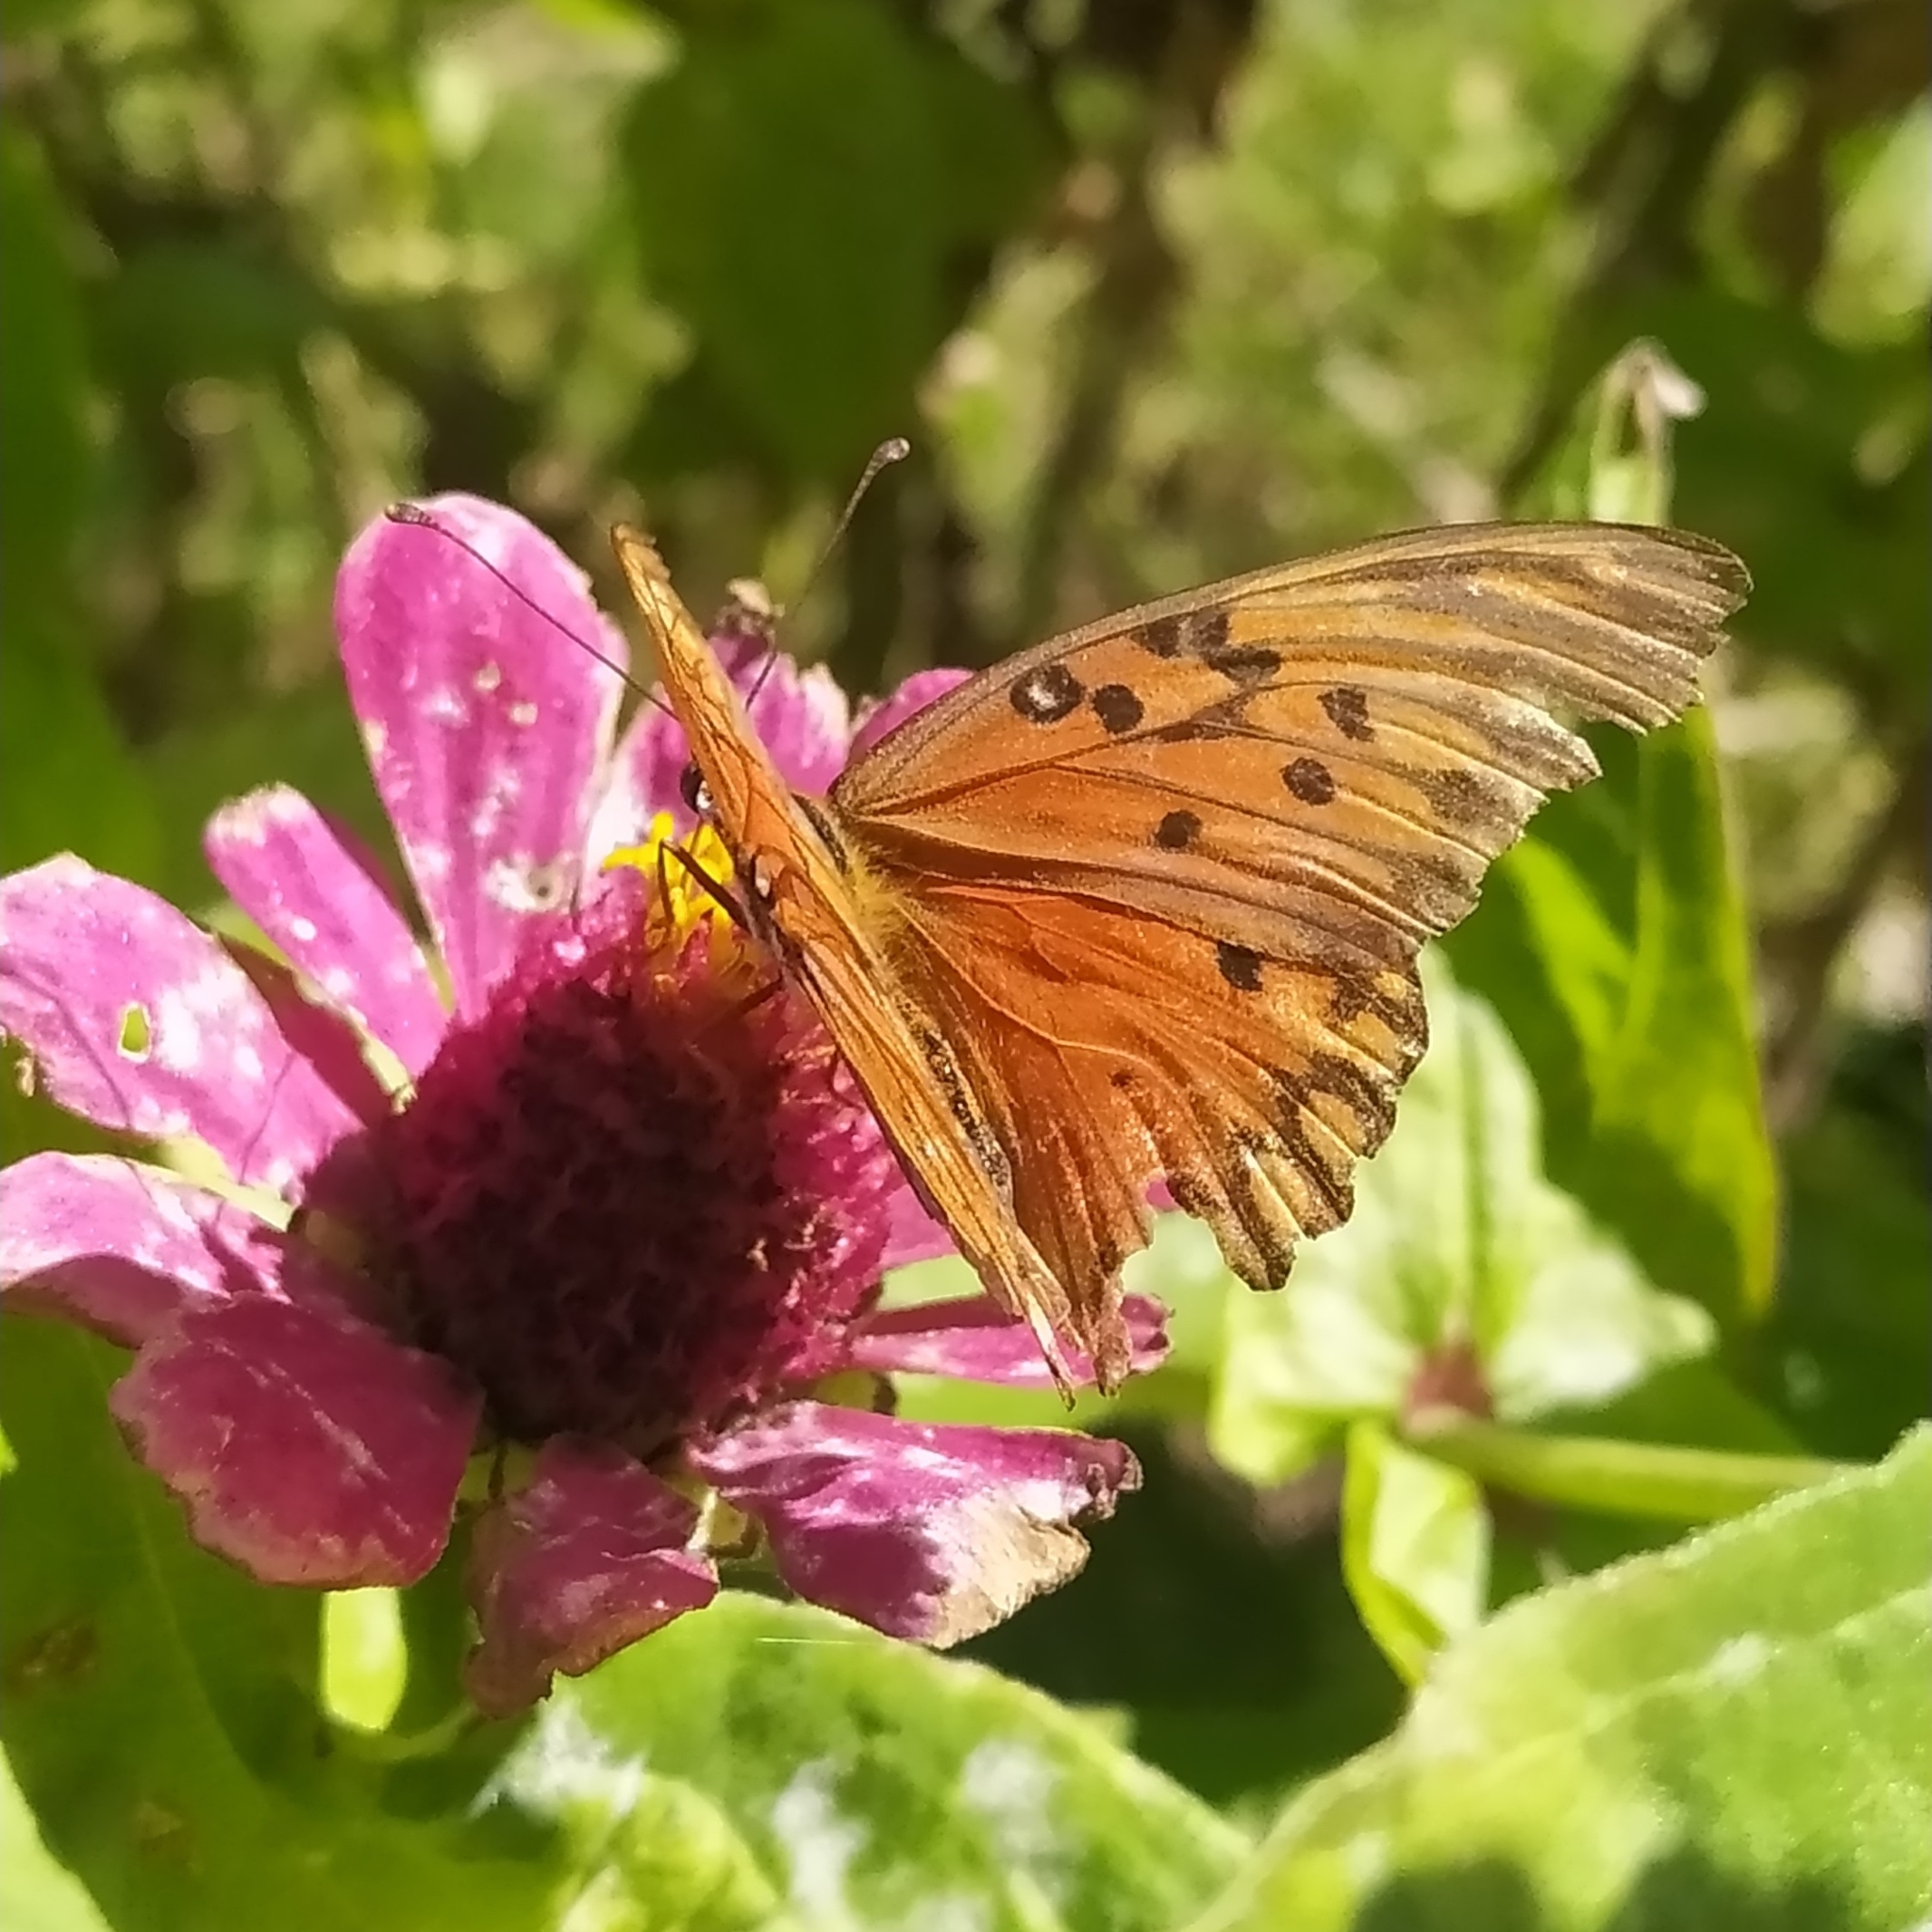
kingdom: Animalia
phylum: Arthropoda
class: Insecta
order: Lepidoptera
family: Nymphalidae
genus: Dione
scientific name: Dione vanillae
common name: Gulf fritillary
